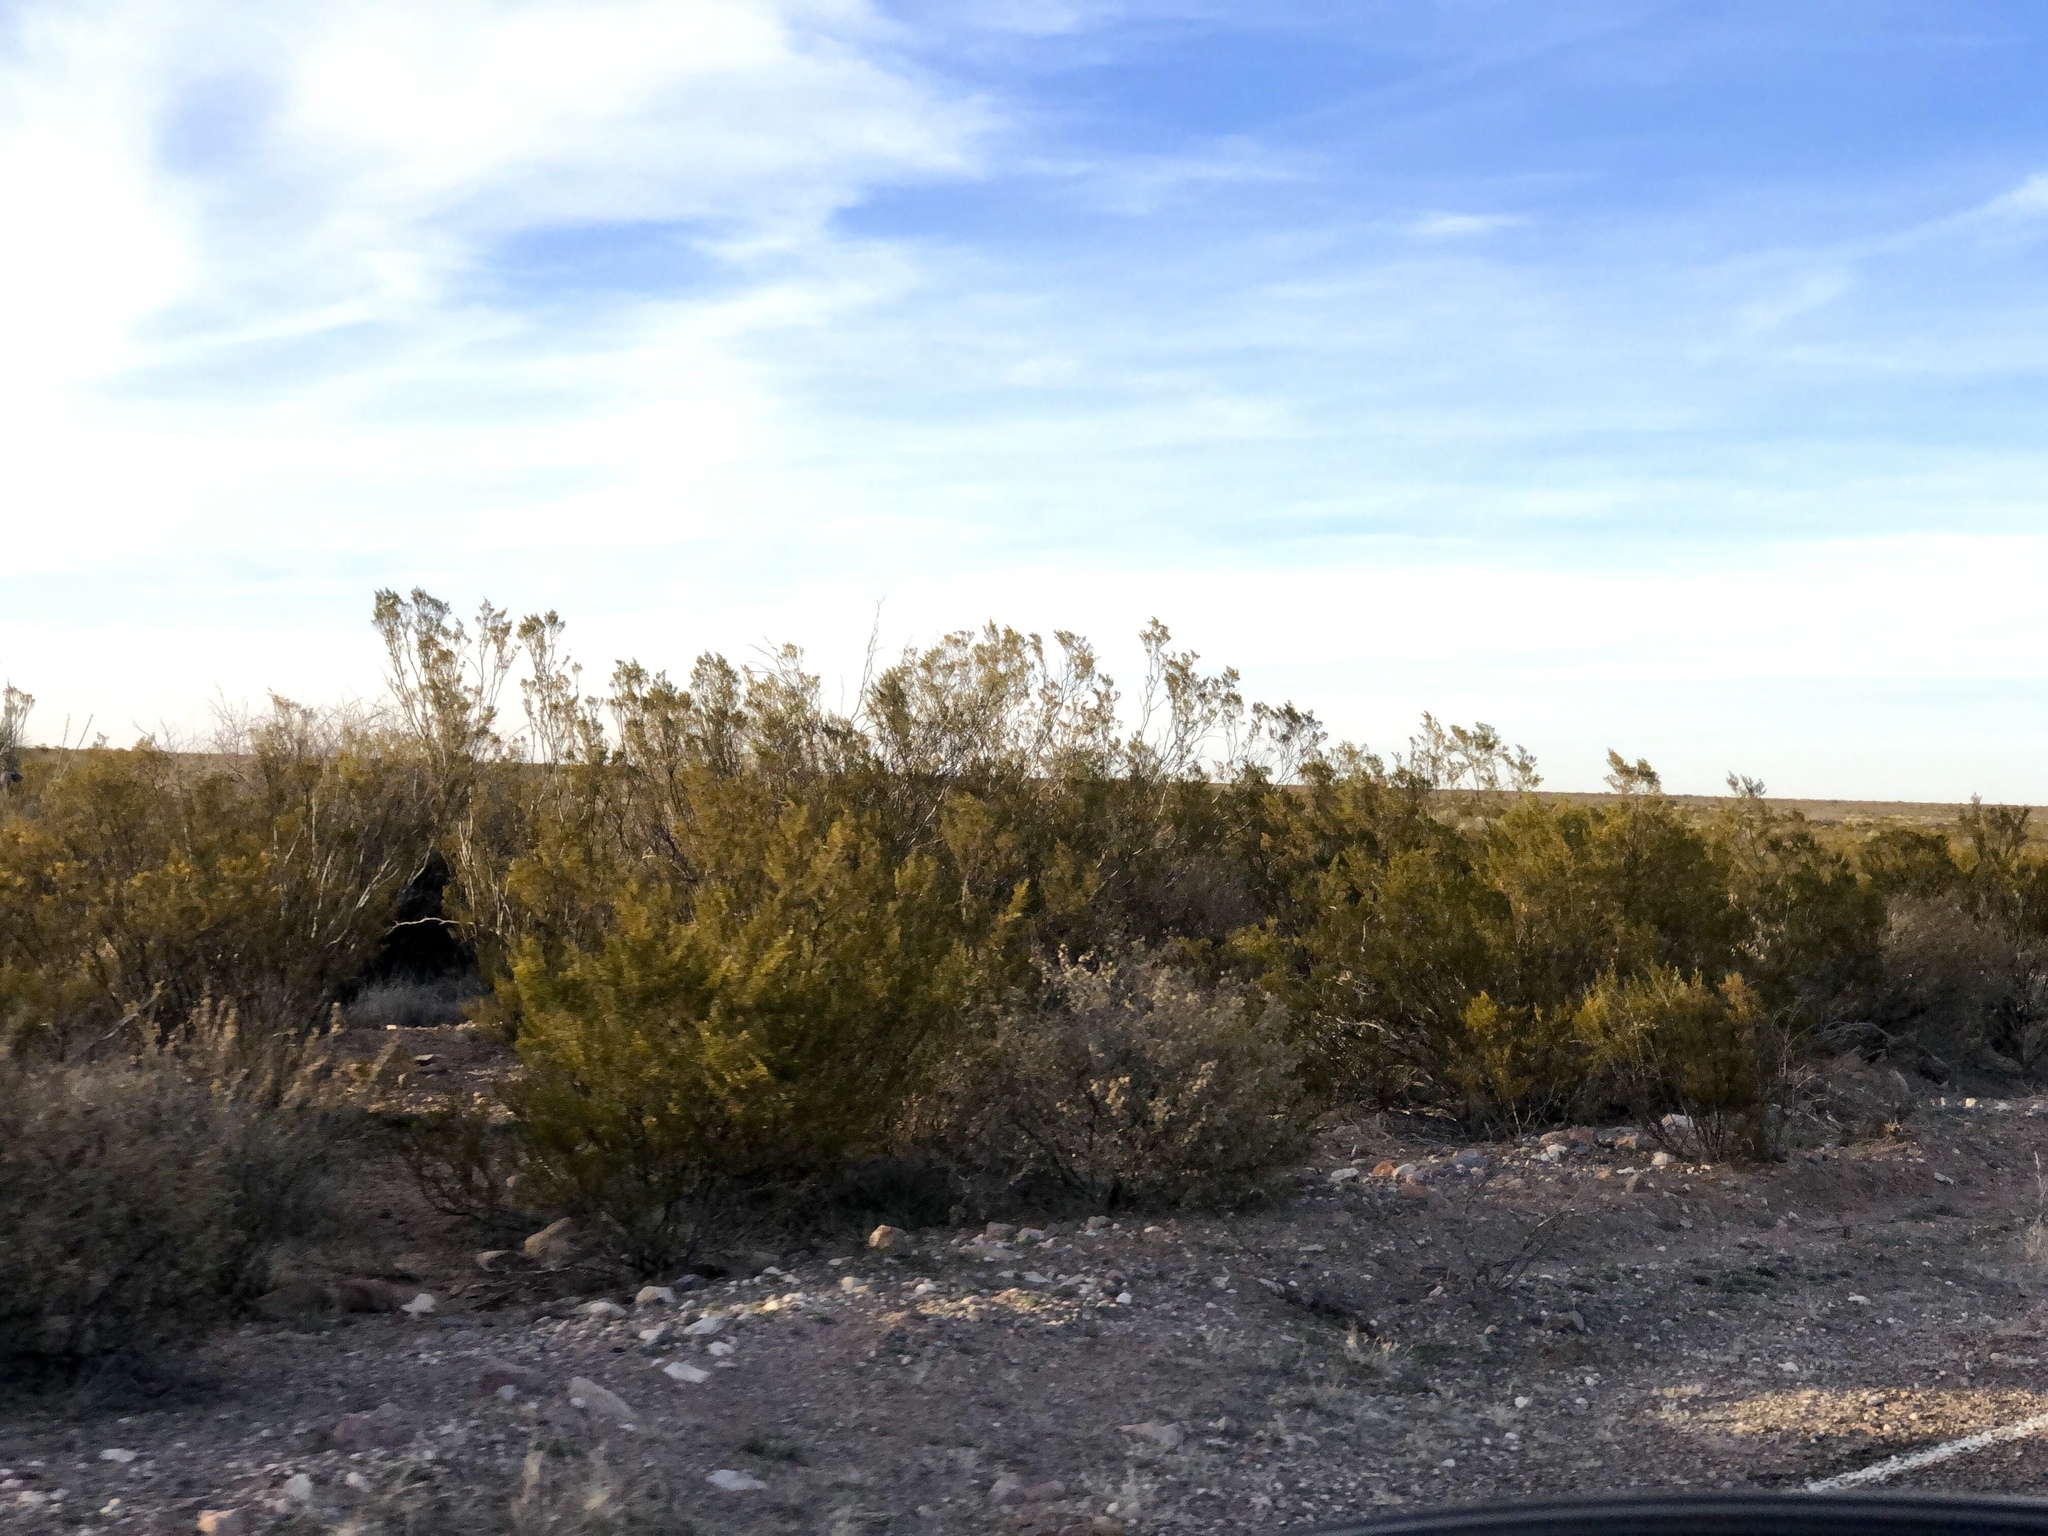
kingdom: Plantae
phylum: Tracheophyta
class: Magnoliopsida
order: Zygophyllales
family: Zygophyllaceae
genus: Larrea
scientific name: Larrea tridentata
